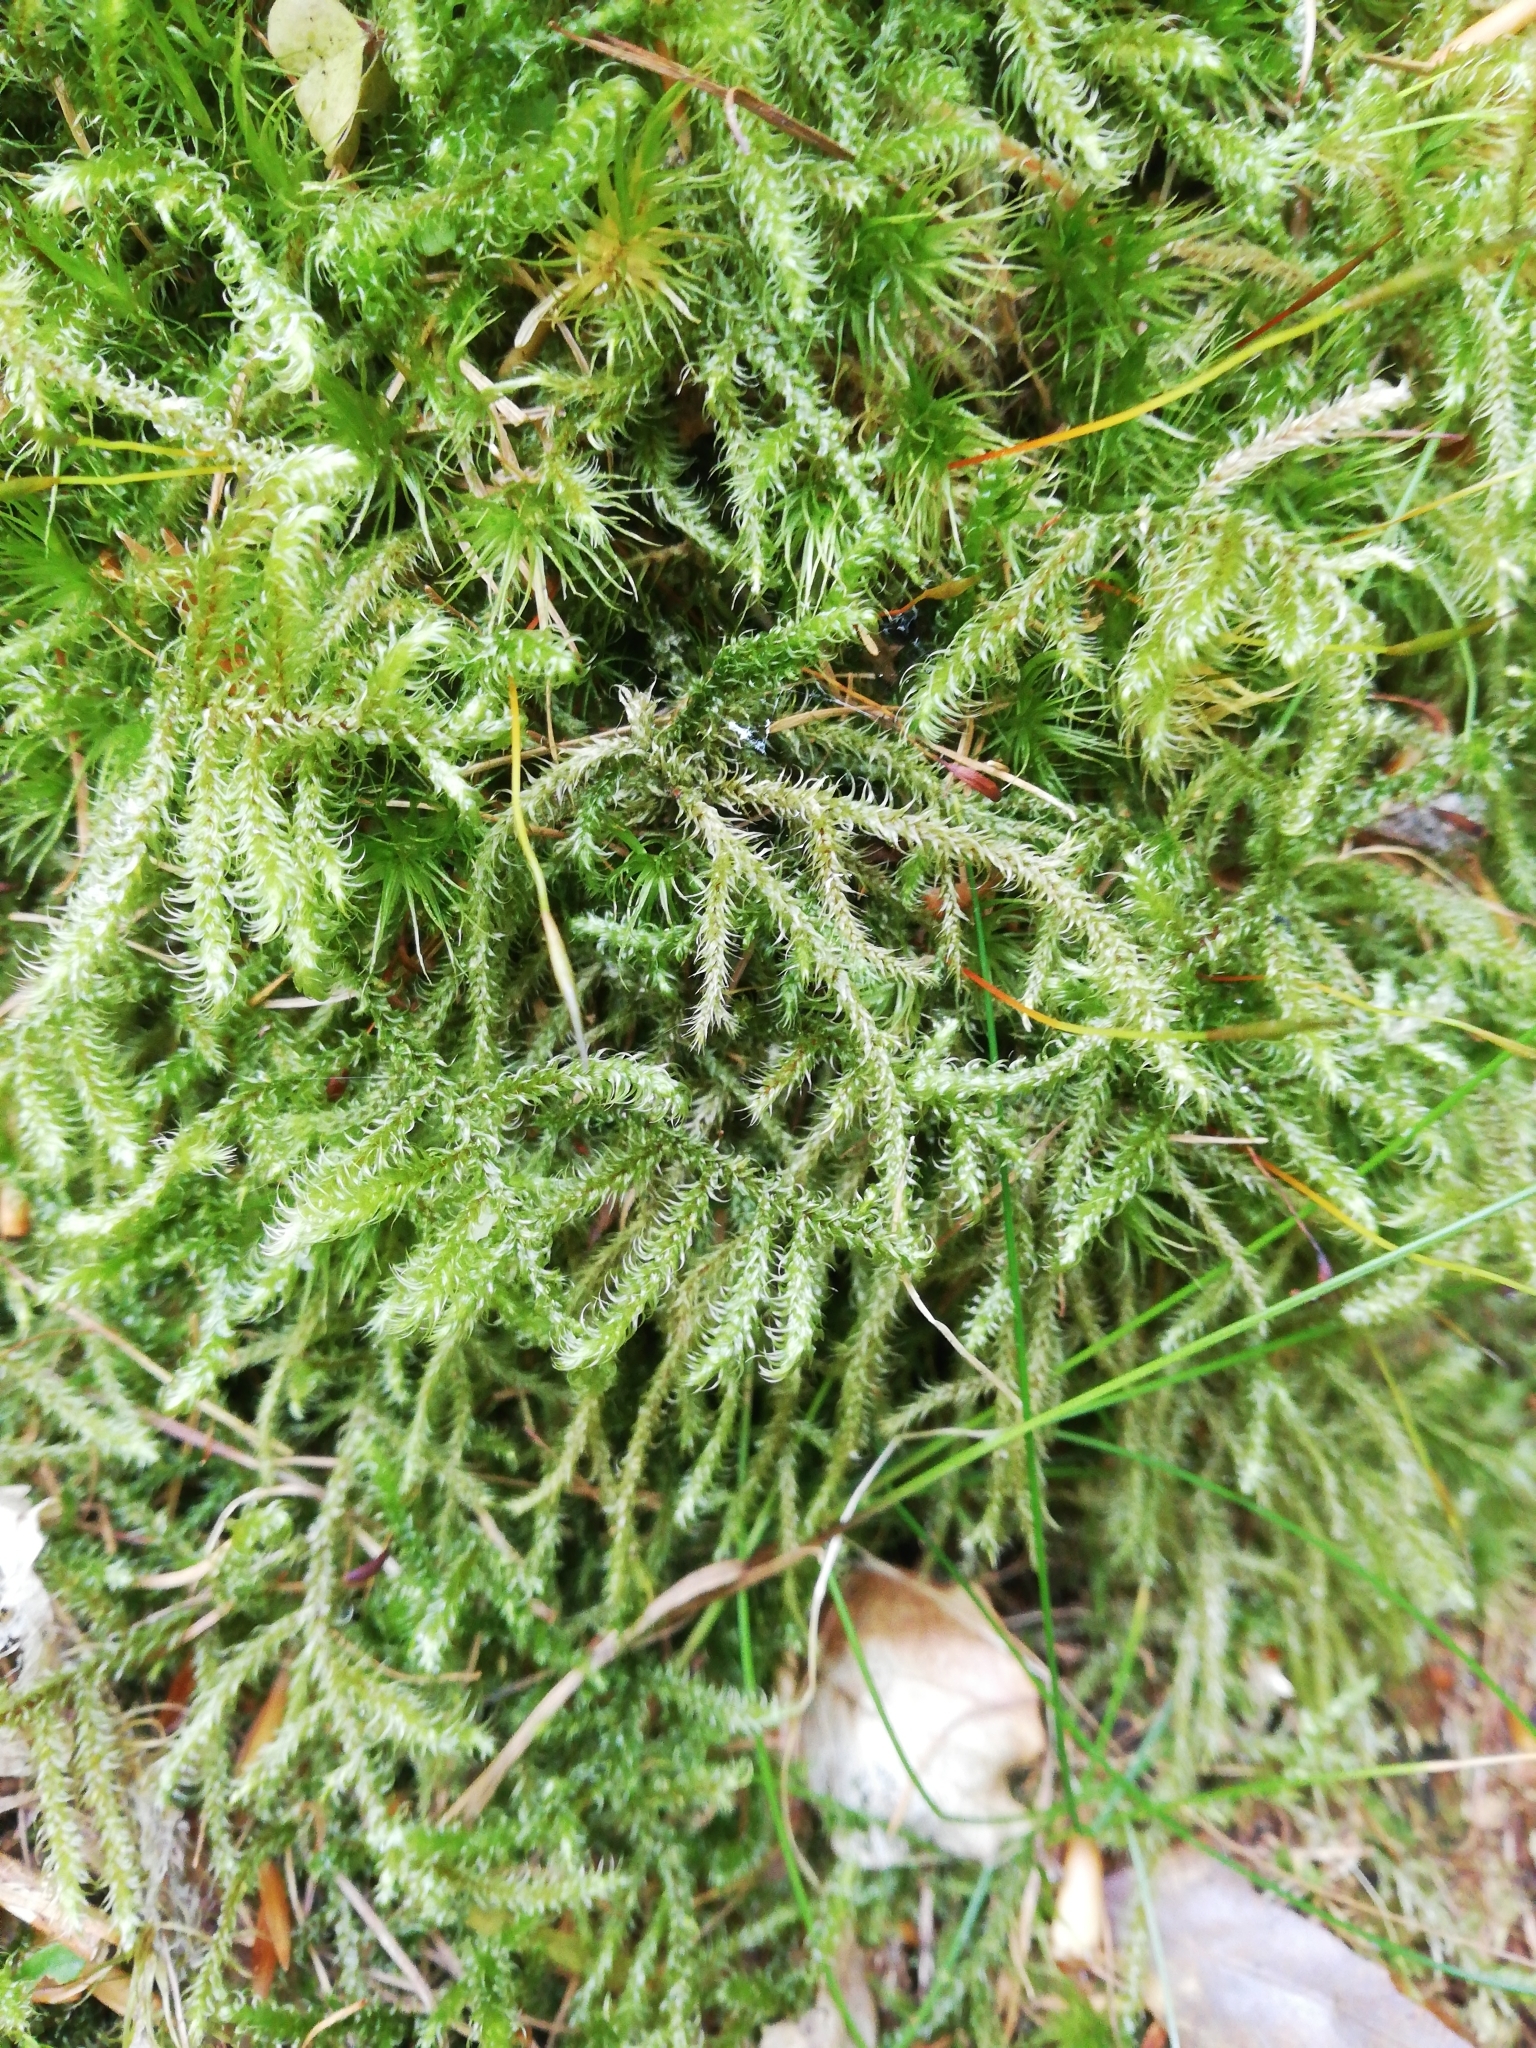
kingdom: Plantae
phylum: Bryophyta
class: Bryopsida
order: Hypnales
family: Hylocomiaceae
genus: Rhytidiadelphus
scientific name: Rhytidiadelphus loreus
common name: Lanky moss
